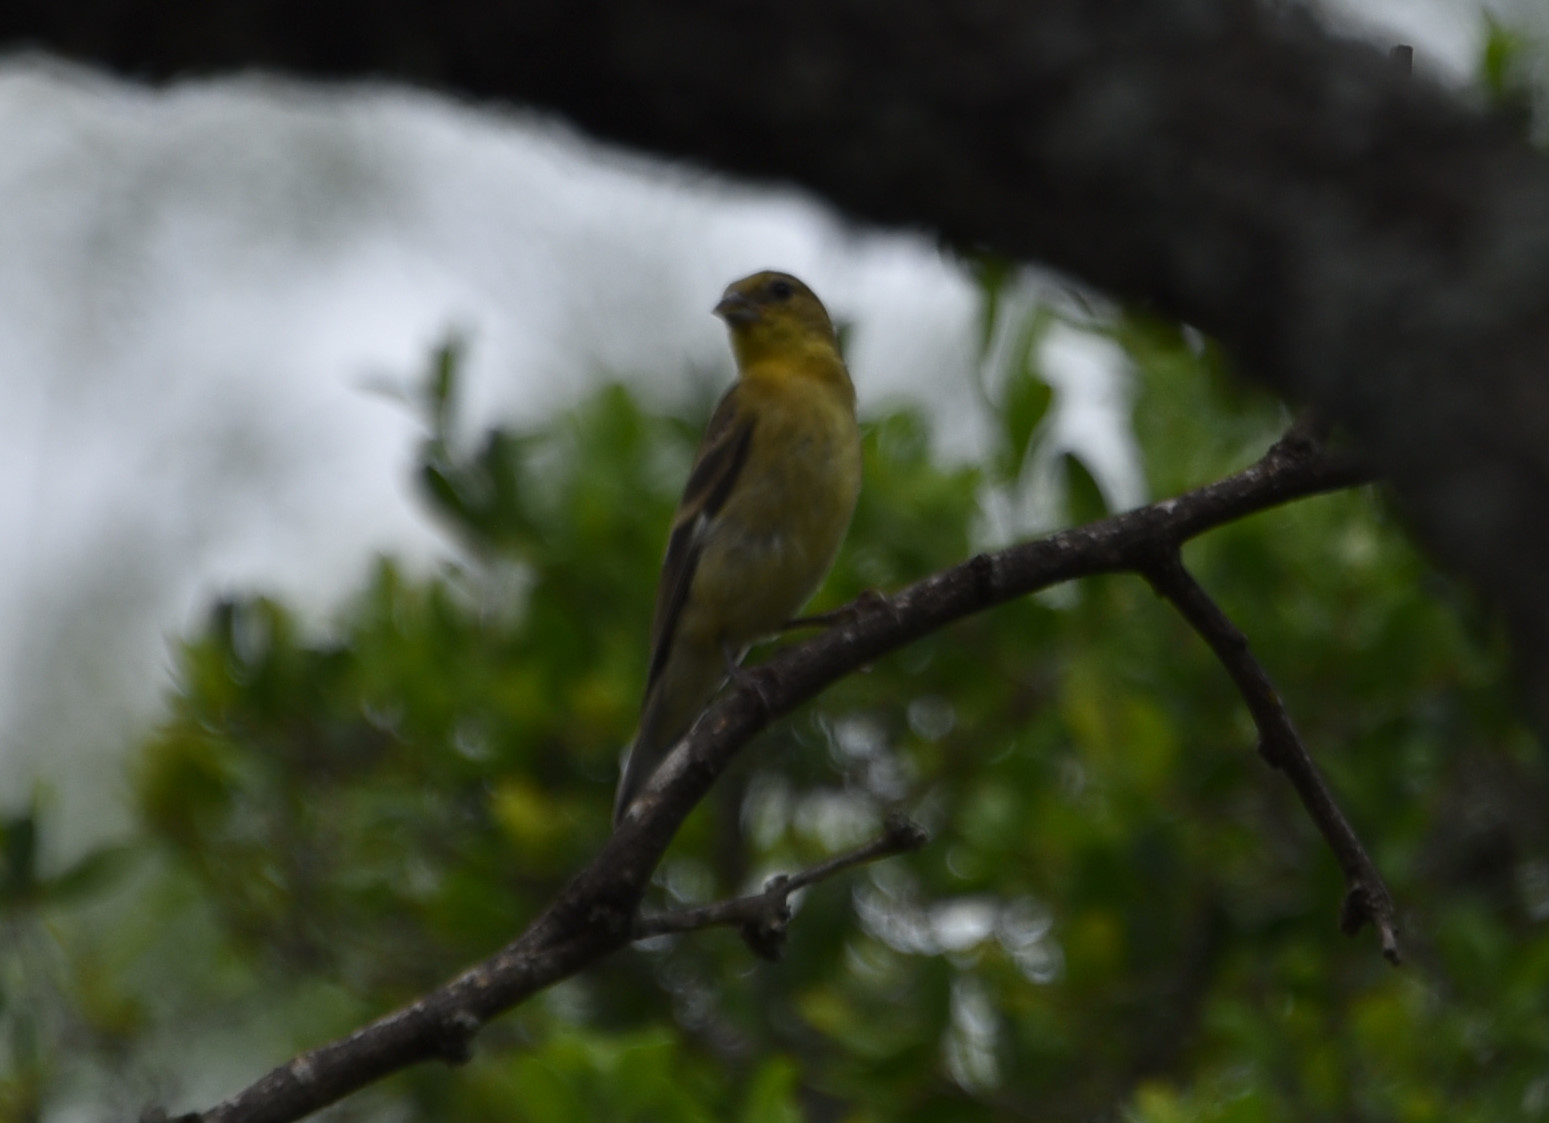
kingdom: Animalia
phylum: Chordata
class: Aves
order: Passeriformes
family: Fringillidae
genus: Spinus
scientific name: Spinus psaltria
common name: Lesser goldfinch
